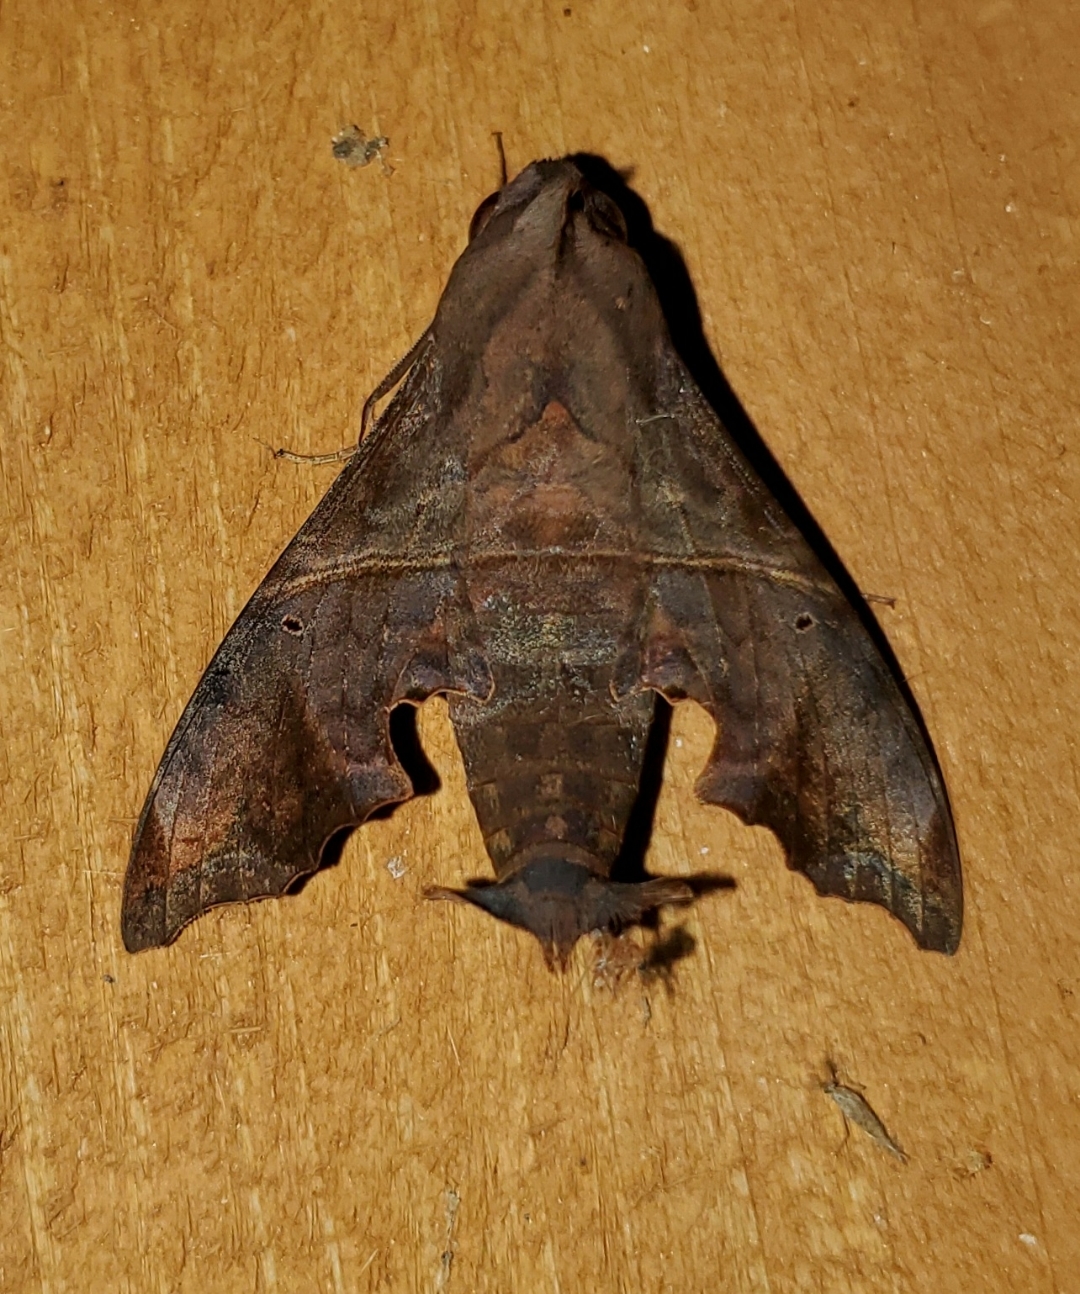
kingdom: Animalia
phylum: Arthropoda
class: Insecta
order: Lepidoptera
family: Sphingidae
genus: Enyo
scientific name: Enyo lugubris
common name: Mournful sphinx
